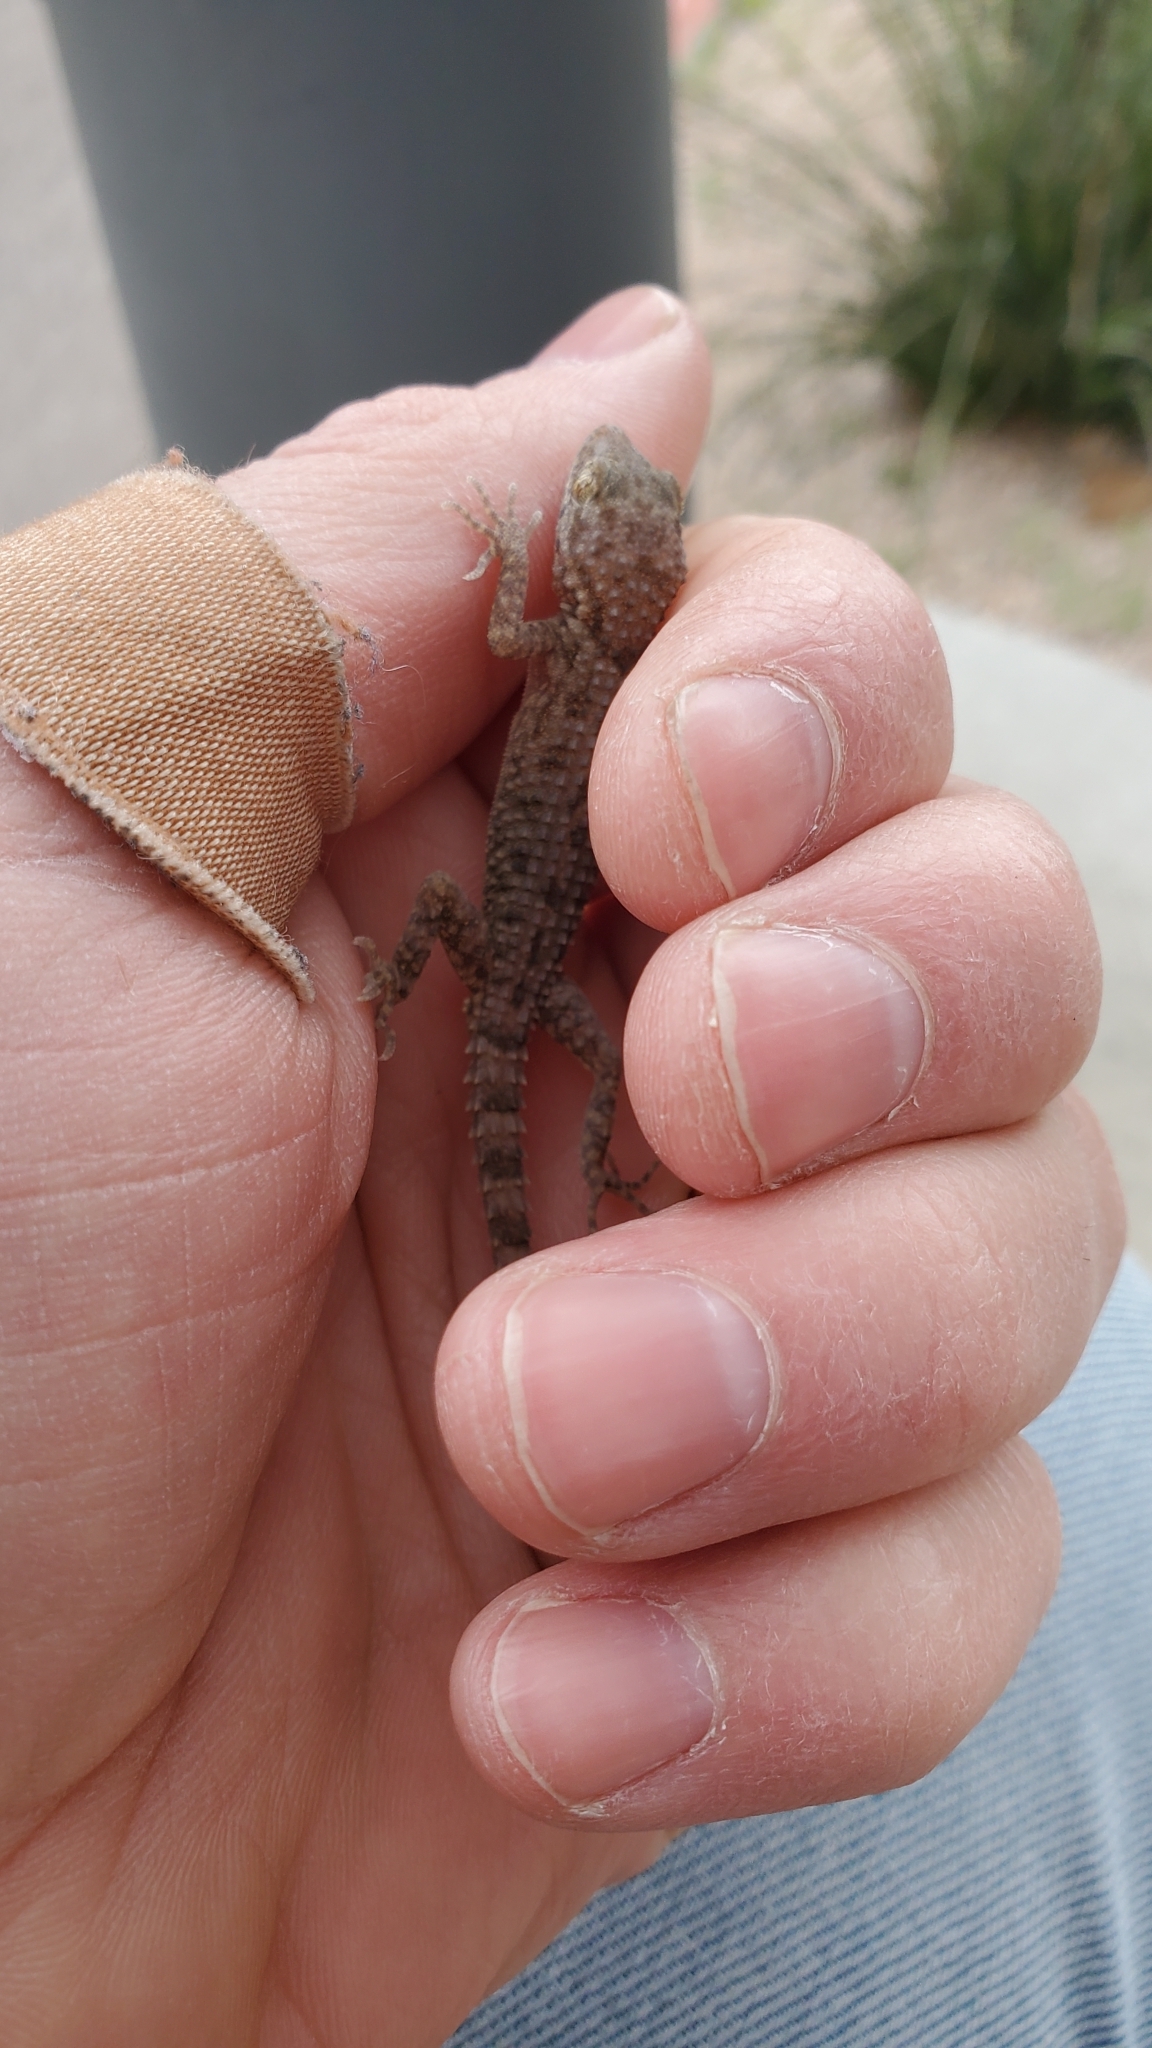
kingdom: Animalia
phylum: Chordata
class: Squamata
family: Gekkonidae
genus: Cyrtopodion
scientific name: Cyrtopodion scabrum
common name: Rough-tailed gecko
